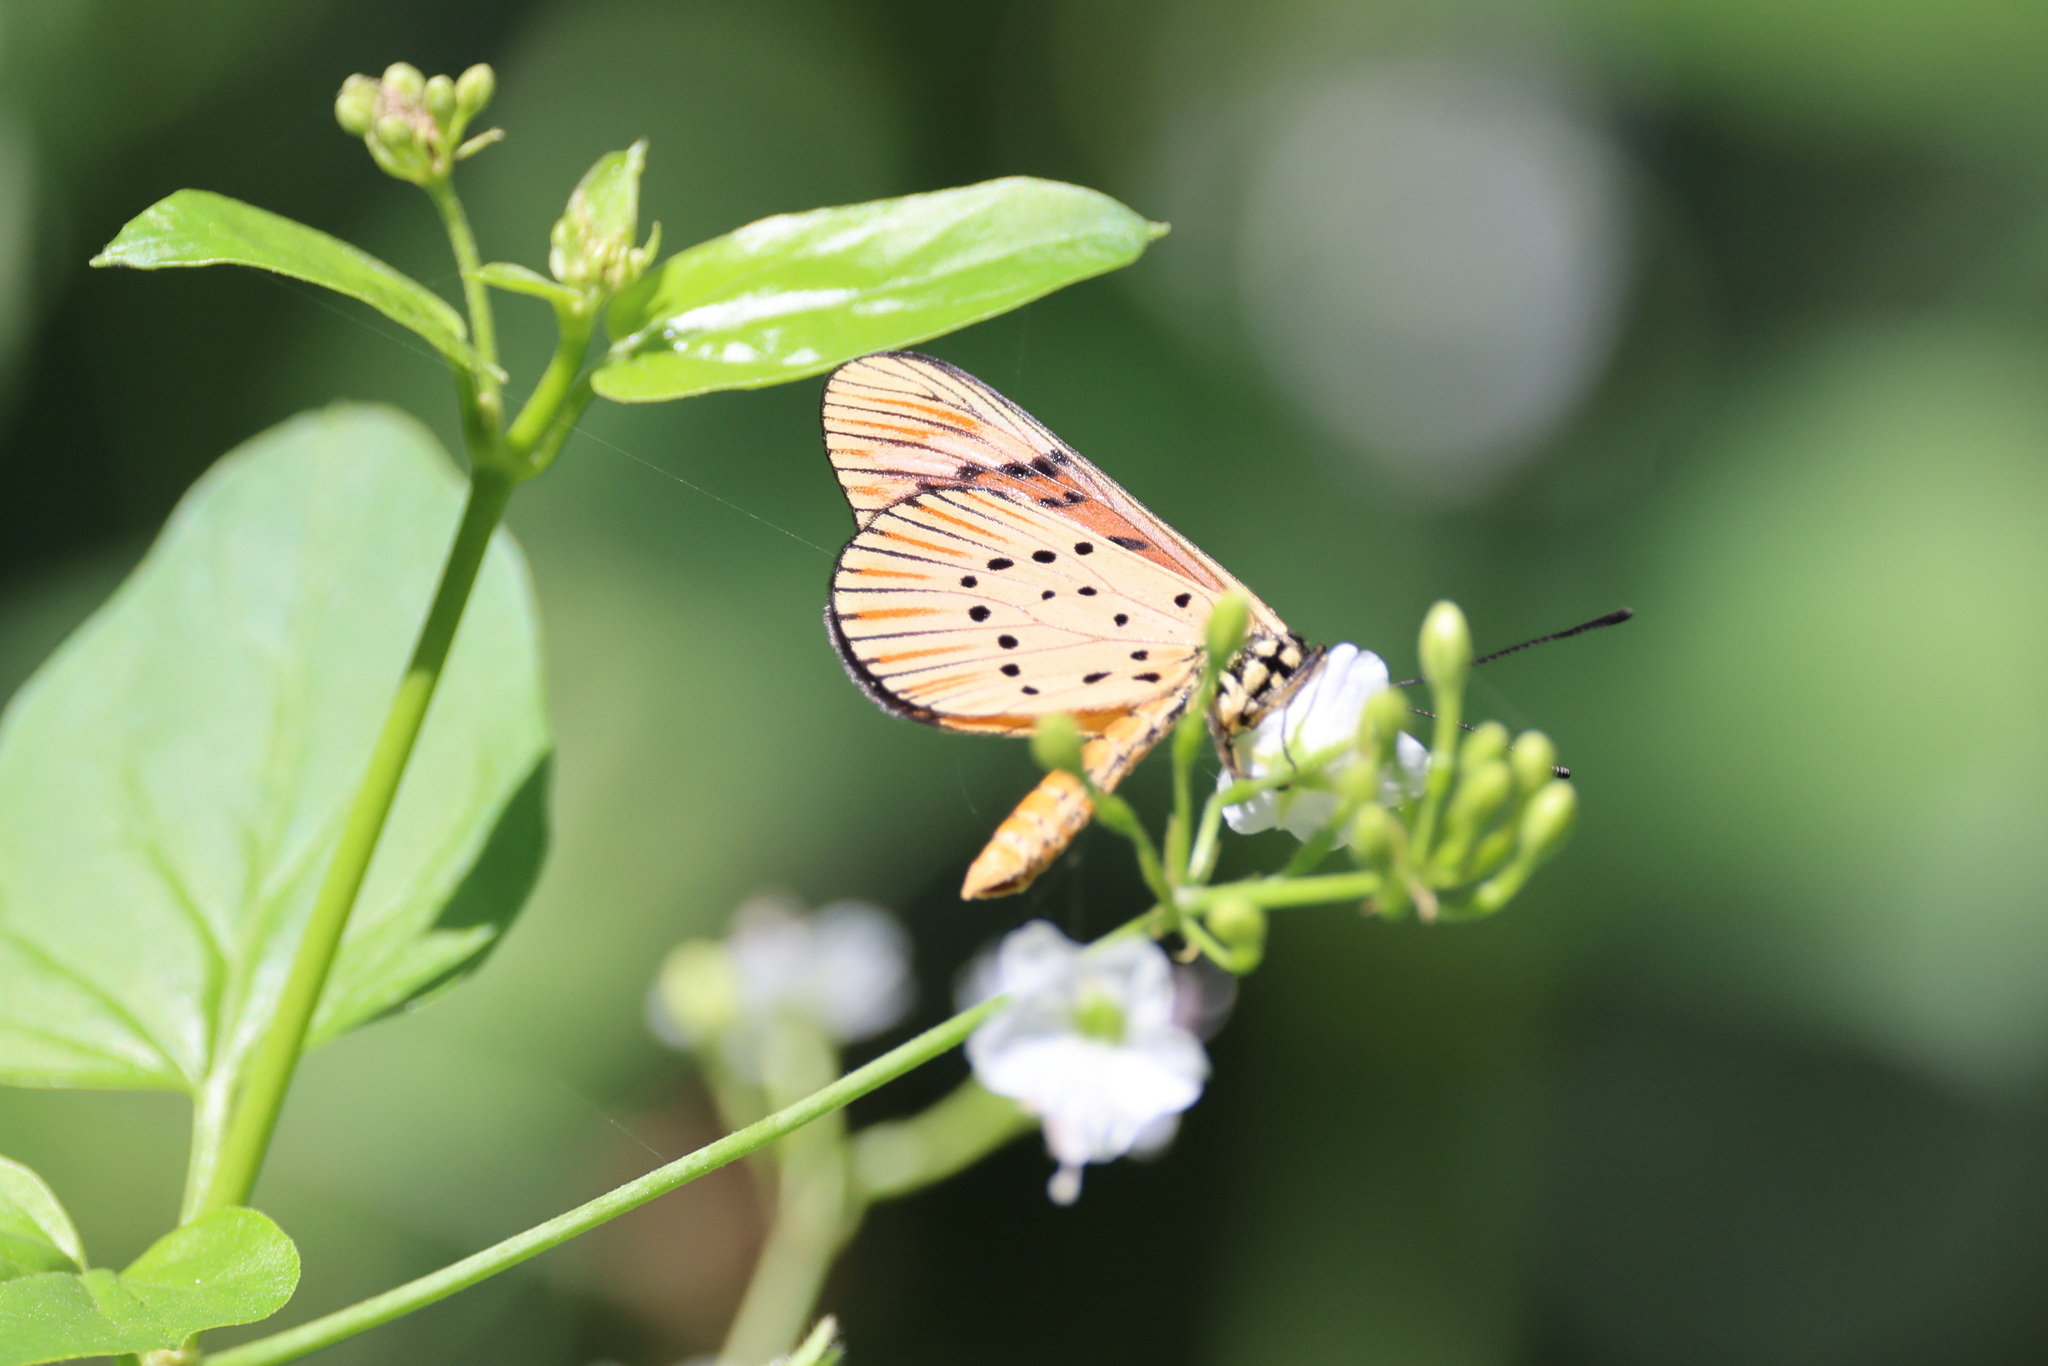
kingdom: Animalia
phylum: Arthropoda
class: Insecta
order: Lepidoptera
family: Nymphalidae
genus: Acraea
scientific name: Acraea Telchinia encedon
